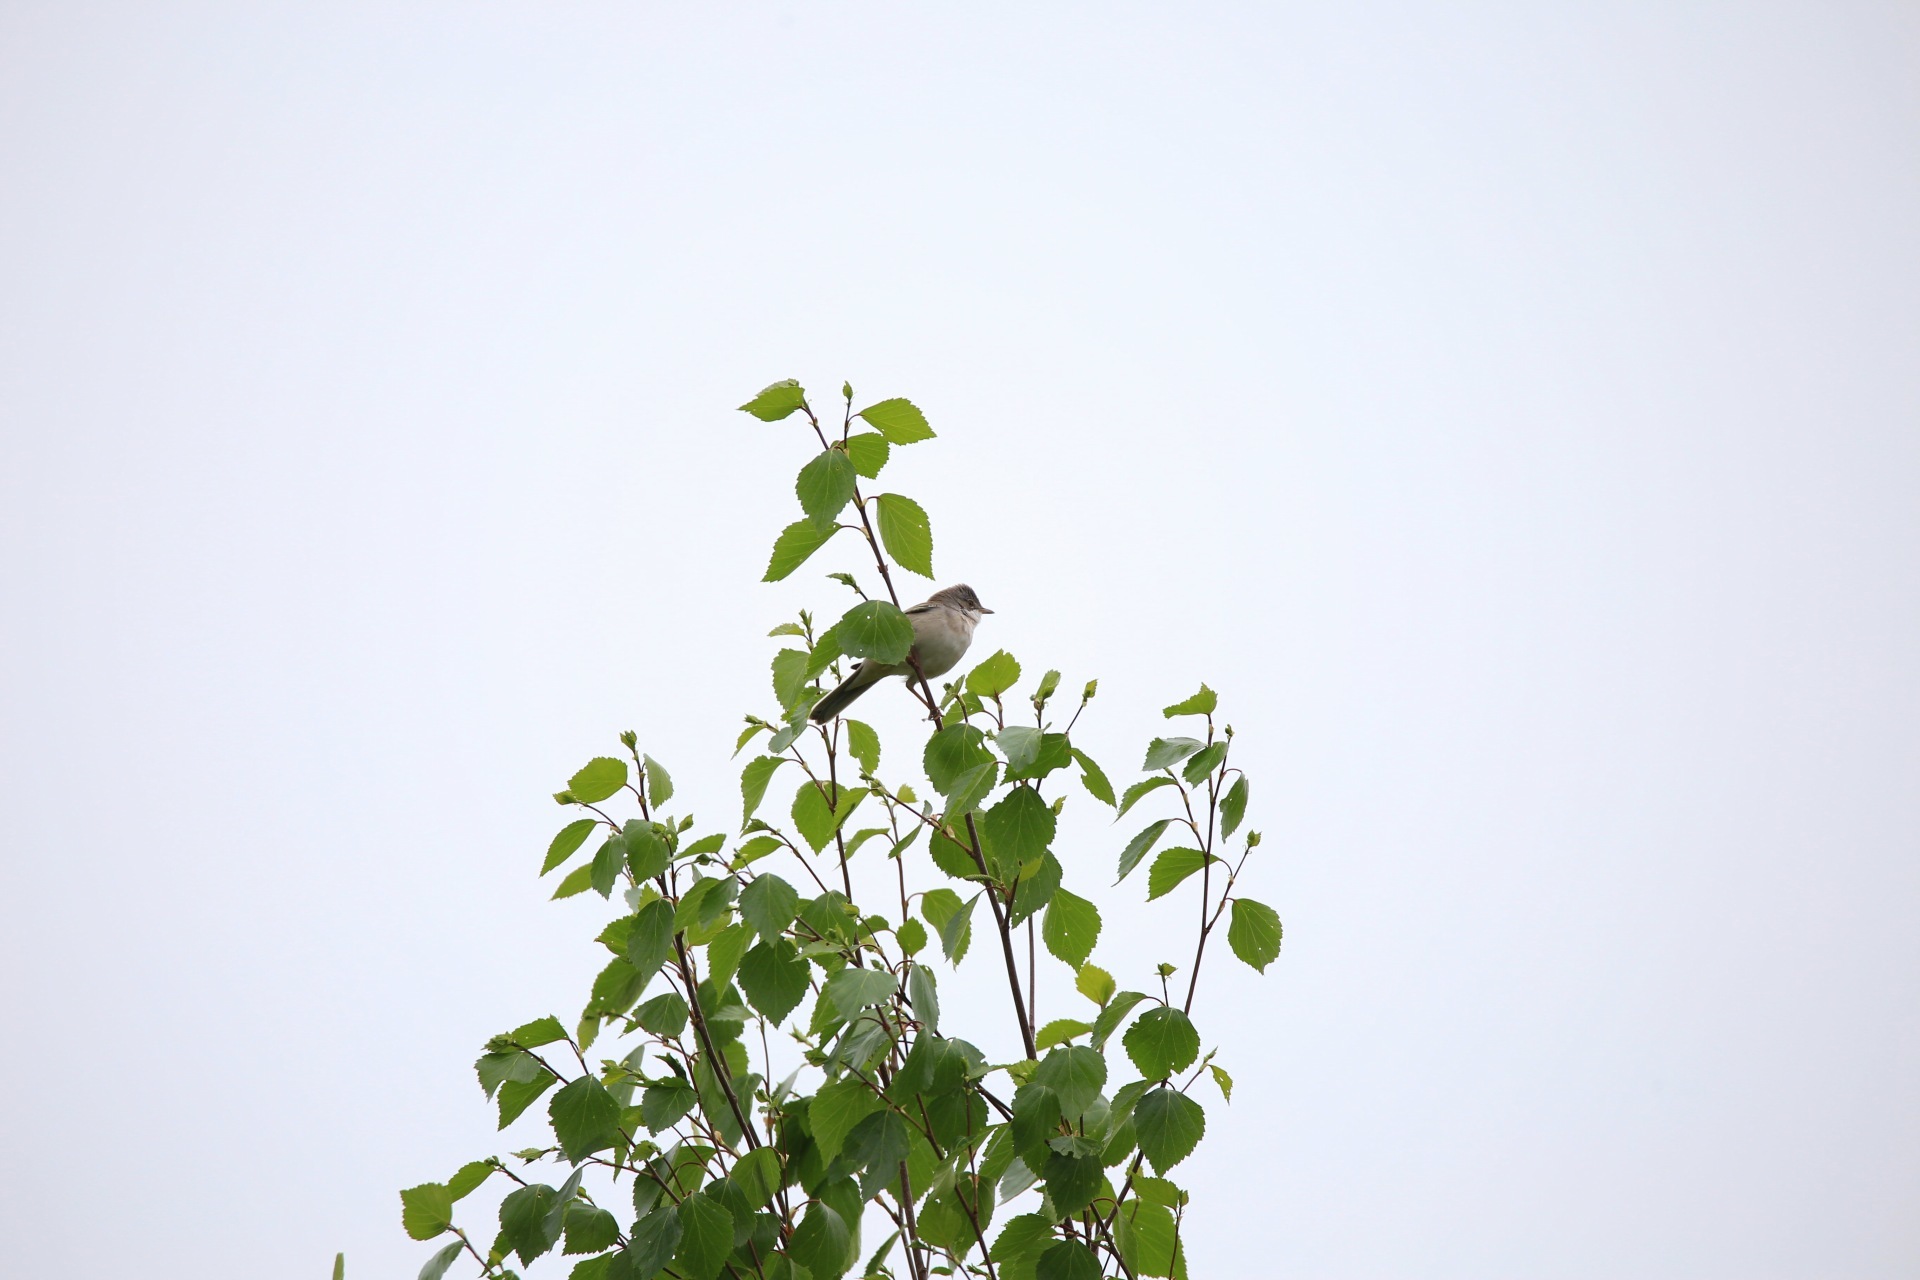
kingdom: Animalia
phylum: Chordata
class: Aves
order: Passeriformes
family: Sylviidae
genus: Sylvia
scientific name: Sylvia communis
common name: Common whitethroat
